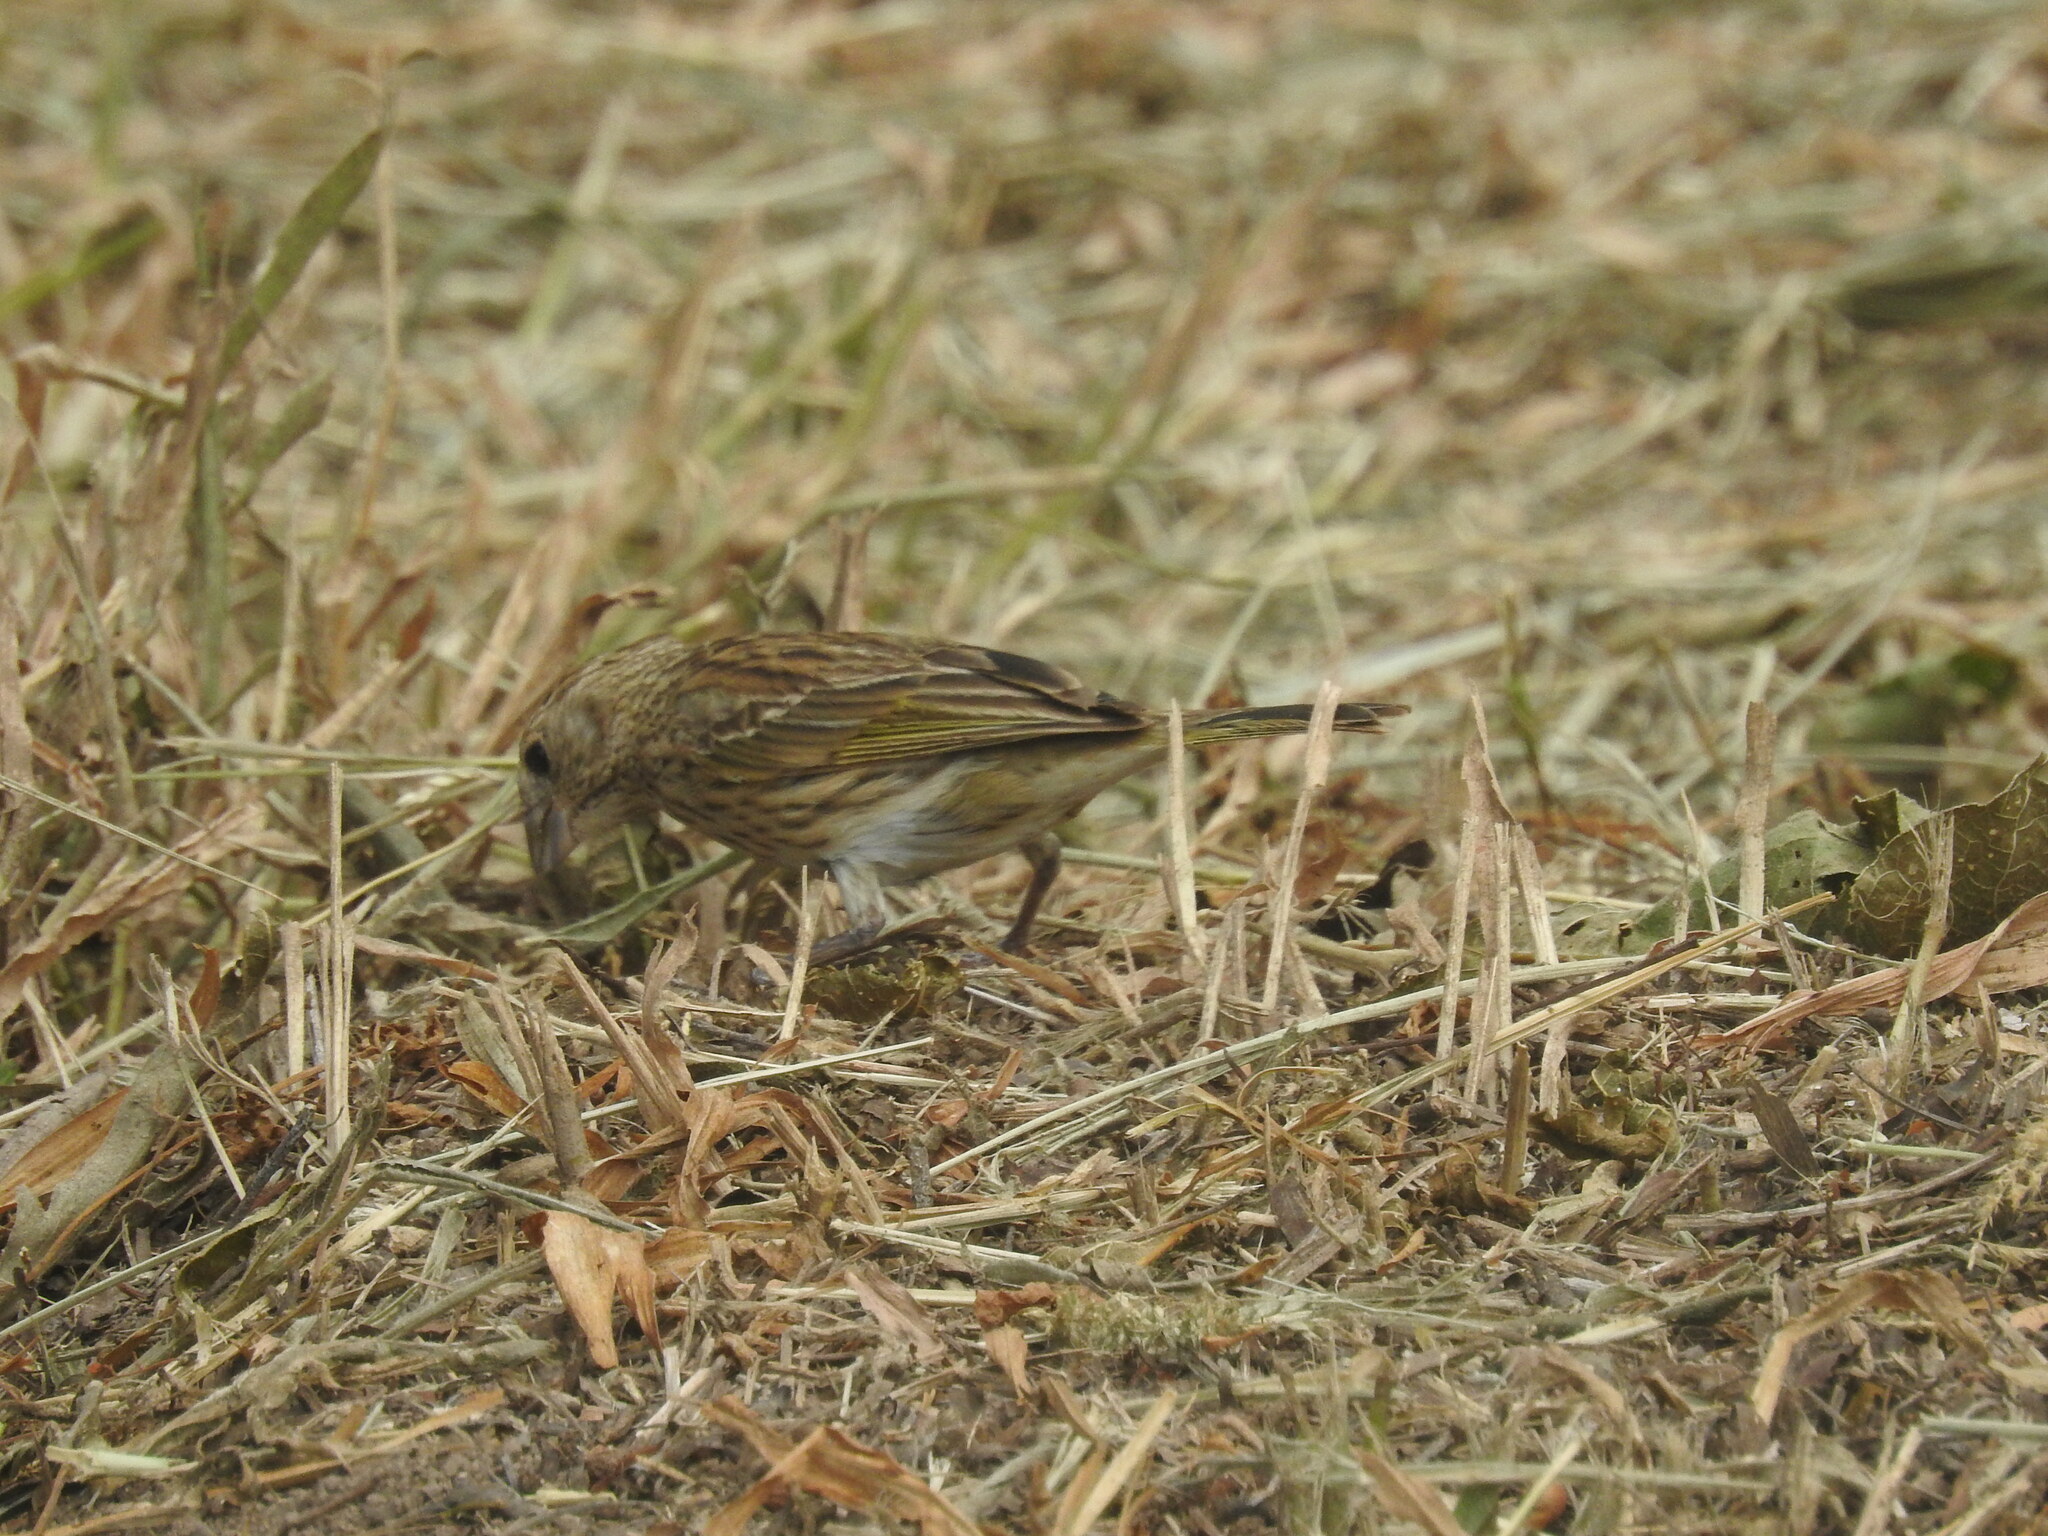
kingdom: Animalia
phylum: Chordata
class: Aves
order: Passeriformes
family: Thraupidae
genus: Sicalis
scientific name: Sicalis flaveola
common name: Saffron finch
